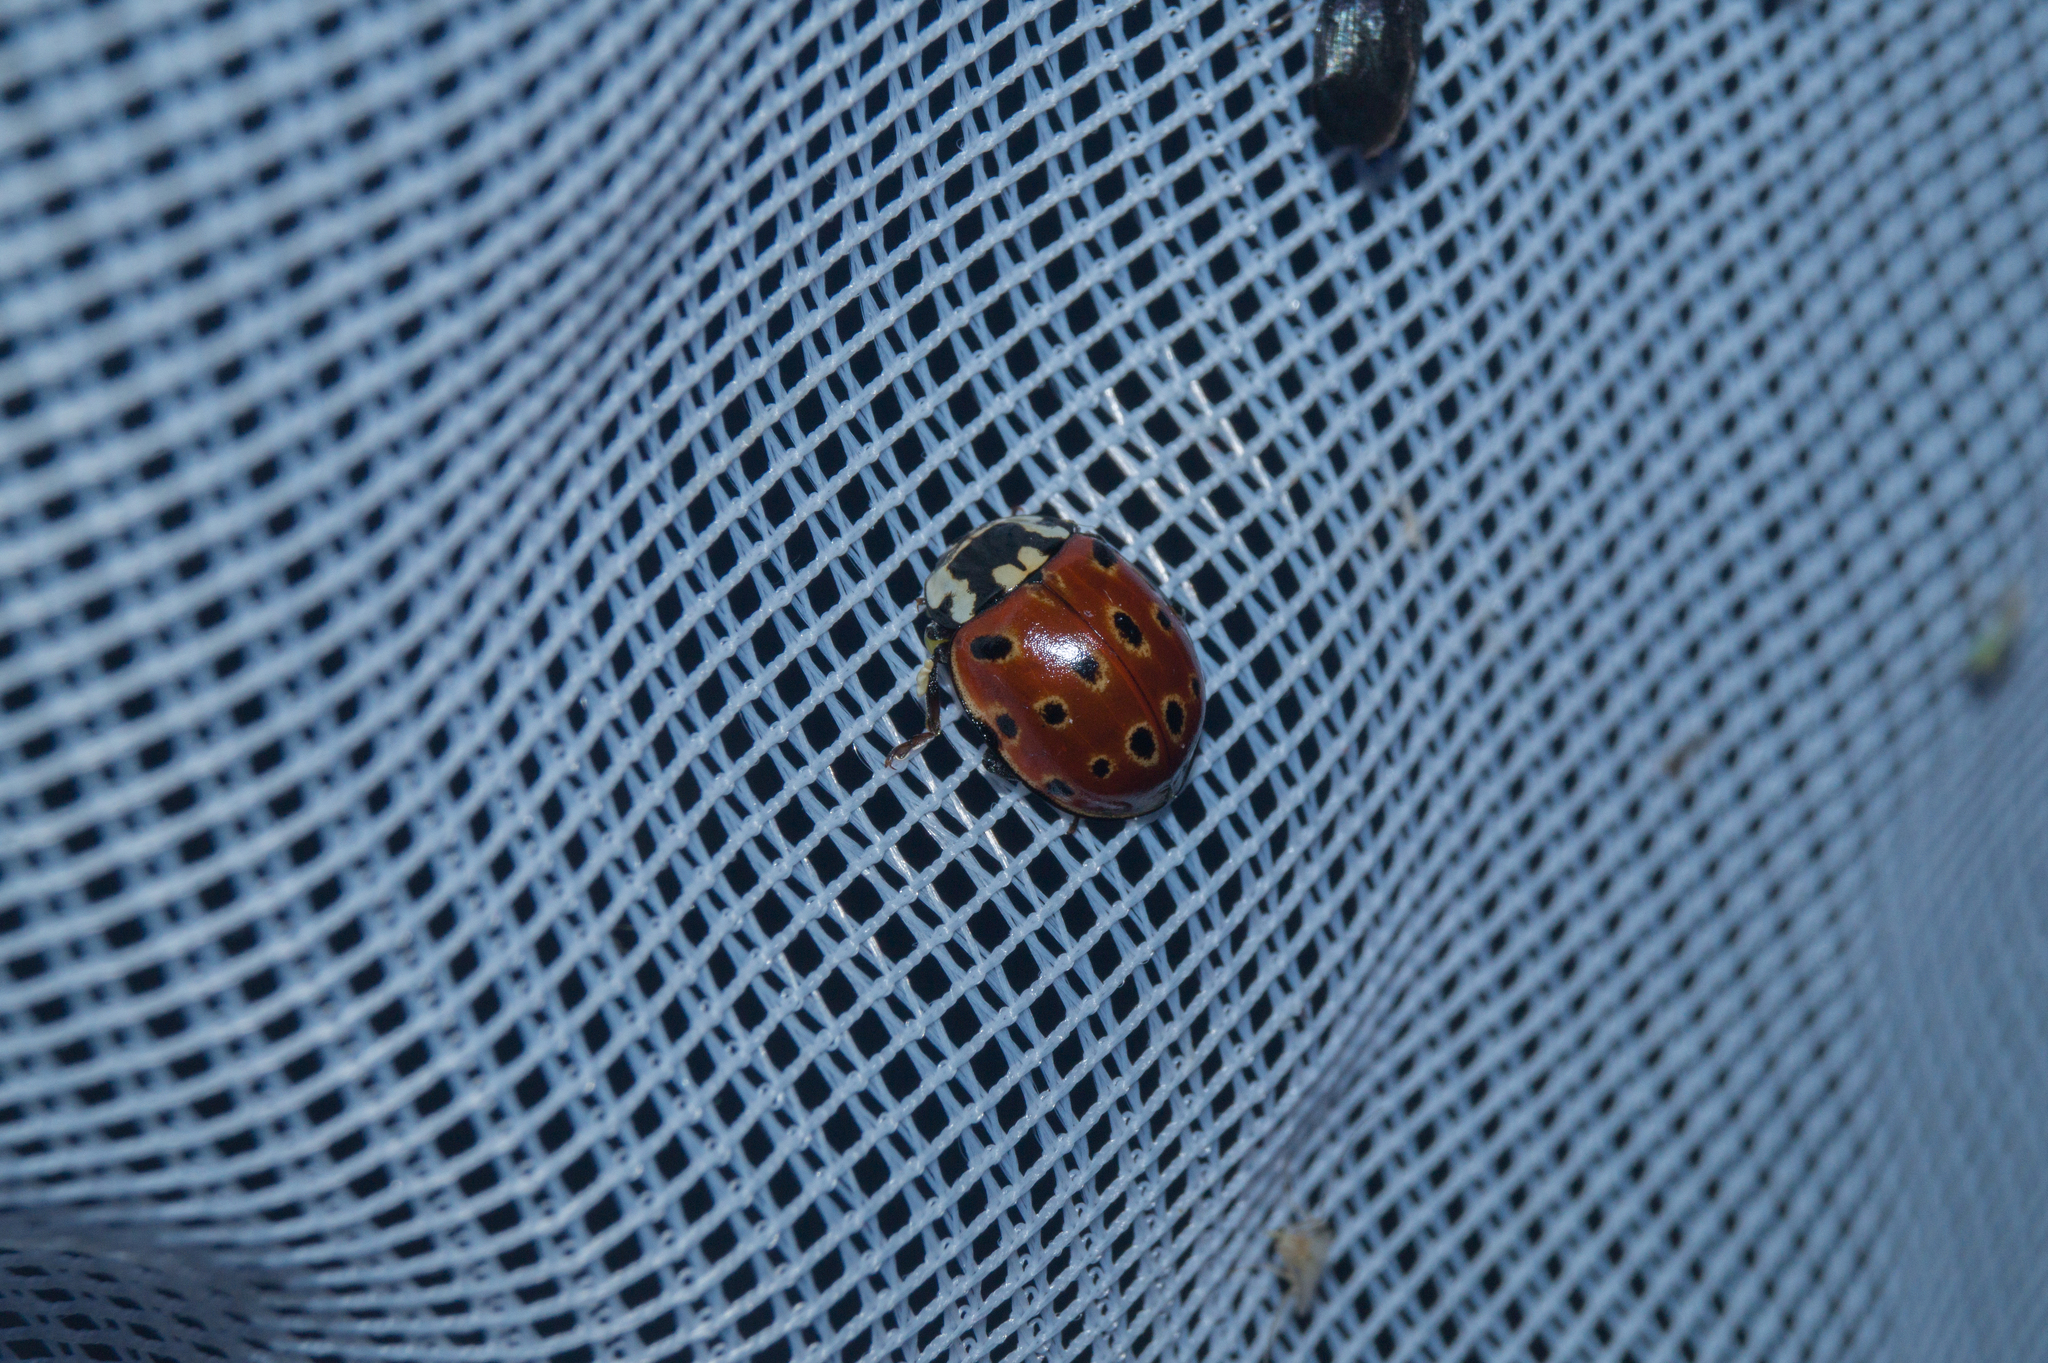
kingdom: Animalia
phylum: Arthropoda
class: Insecta
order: Coleoptera
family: Coccinellidae
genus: Anatis
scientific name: Anatis ocellata
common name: Eyed ladybird
